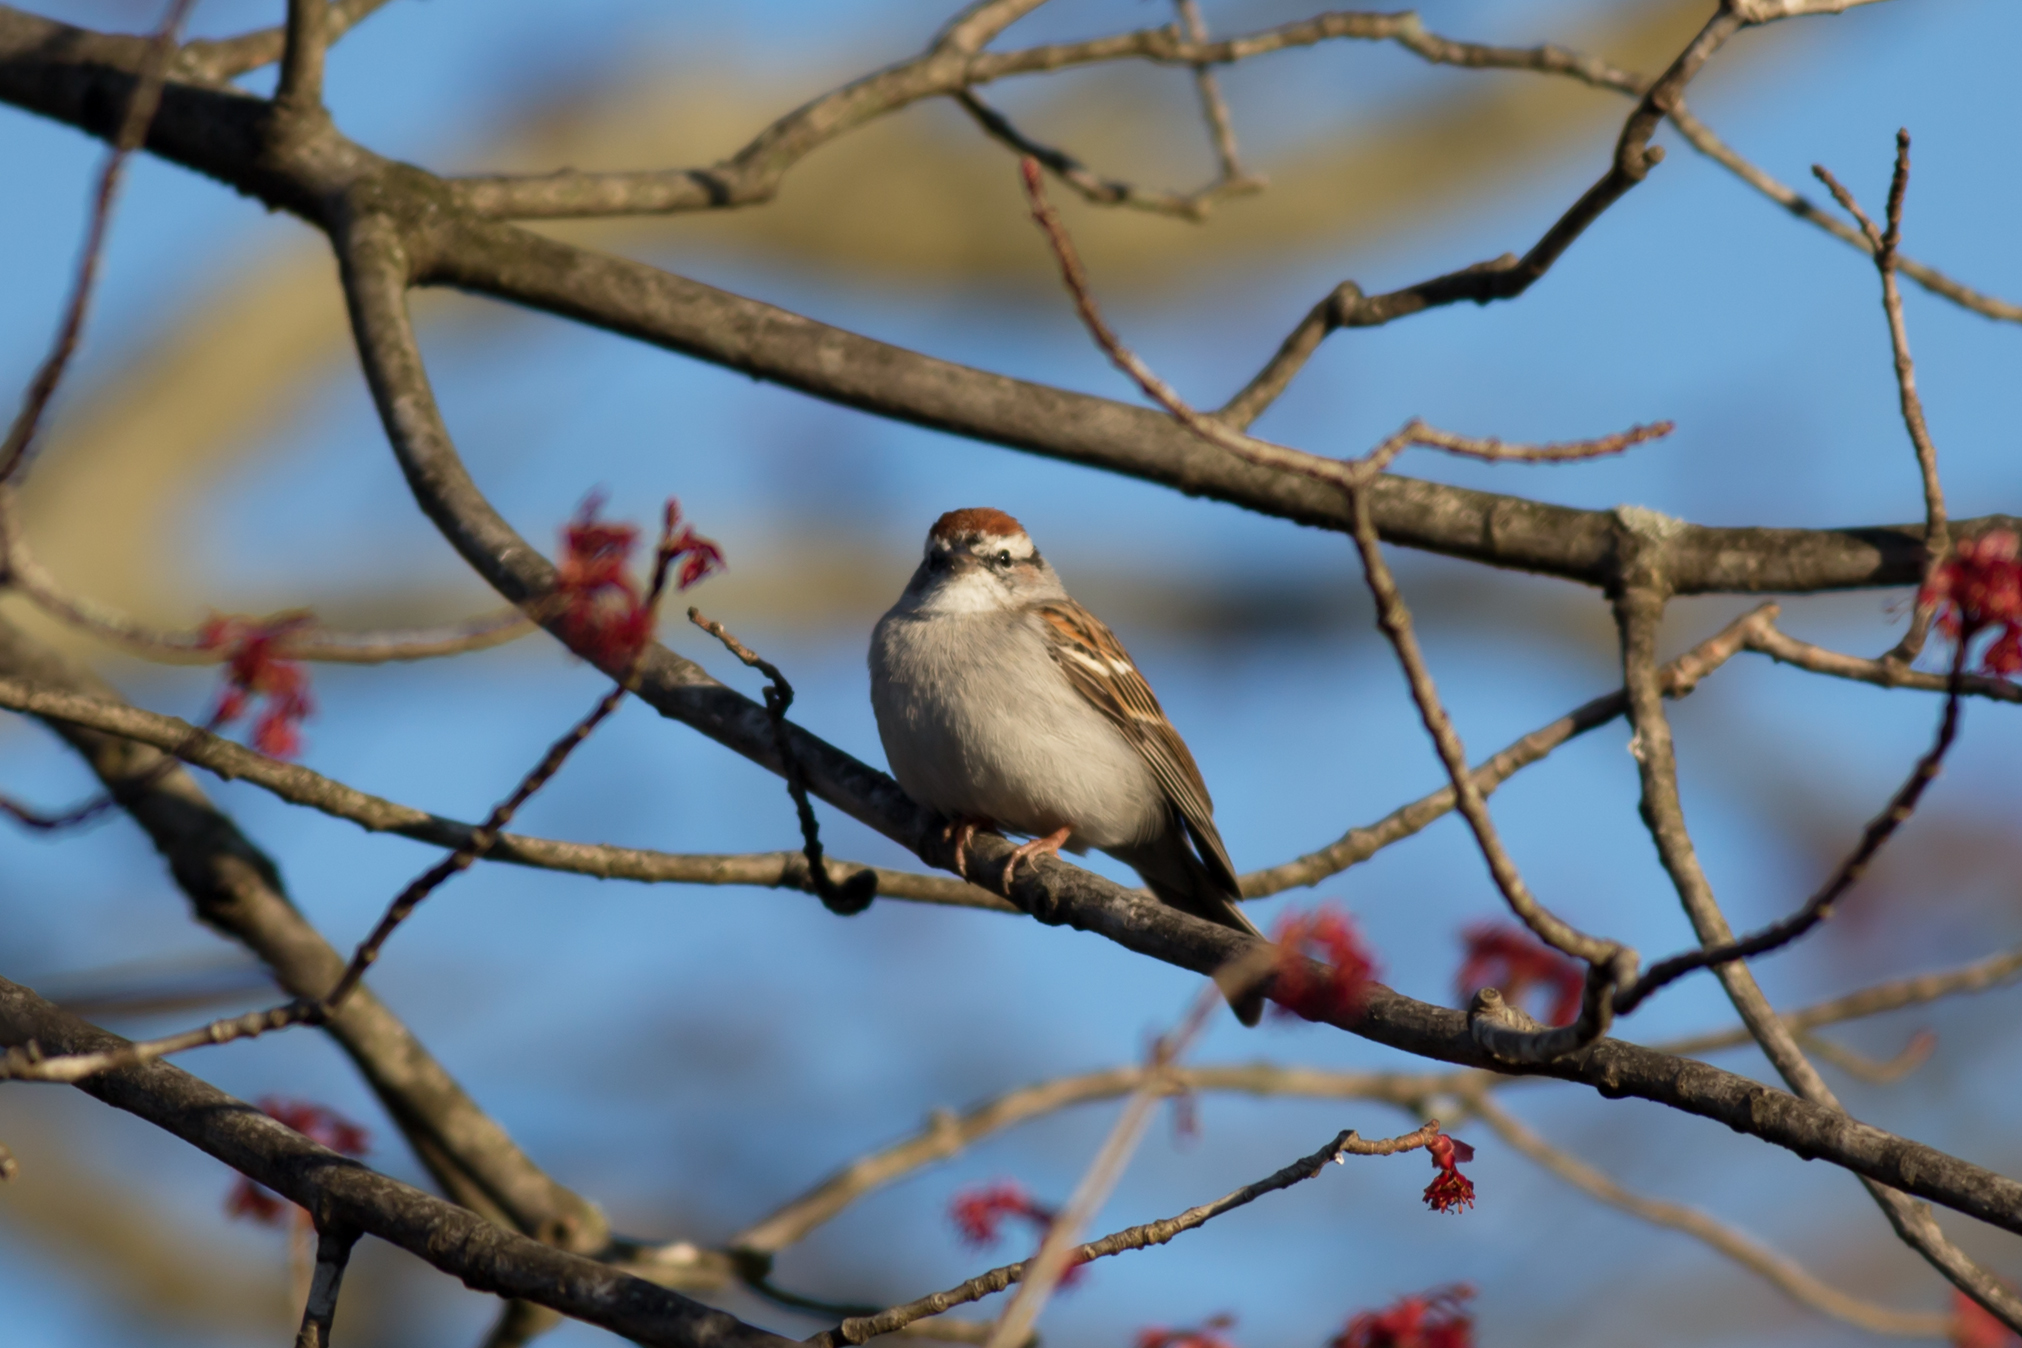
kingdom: Animalia
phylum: Chordata
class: Aves
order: Passeriformes
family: Passerellidae
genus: Spizella
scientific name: Spizella passerina
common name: Chipping sparrow
